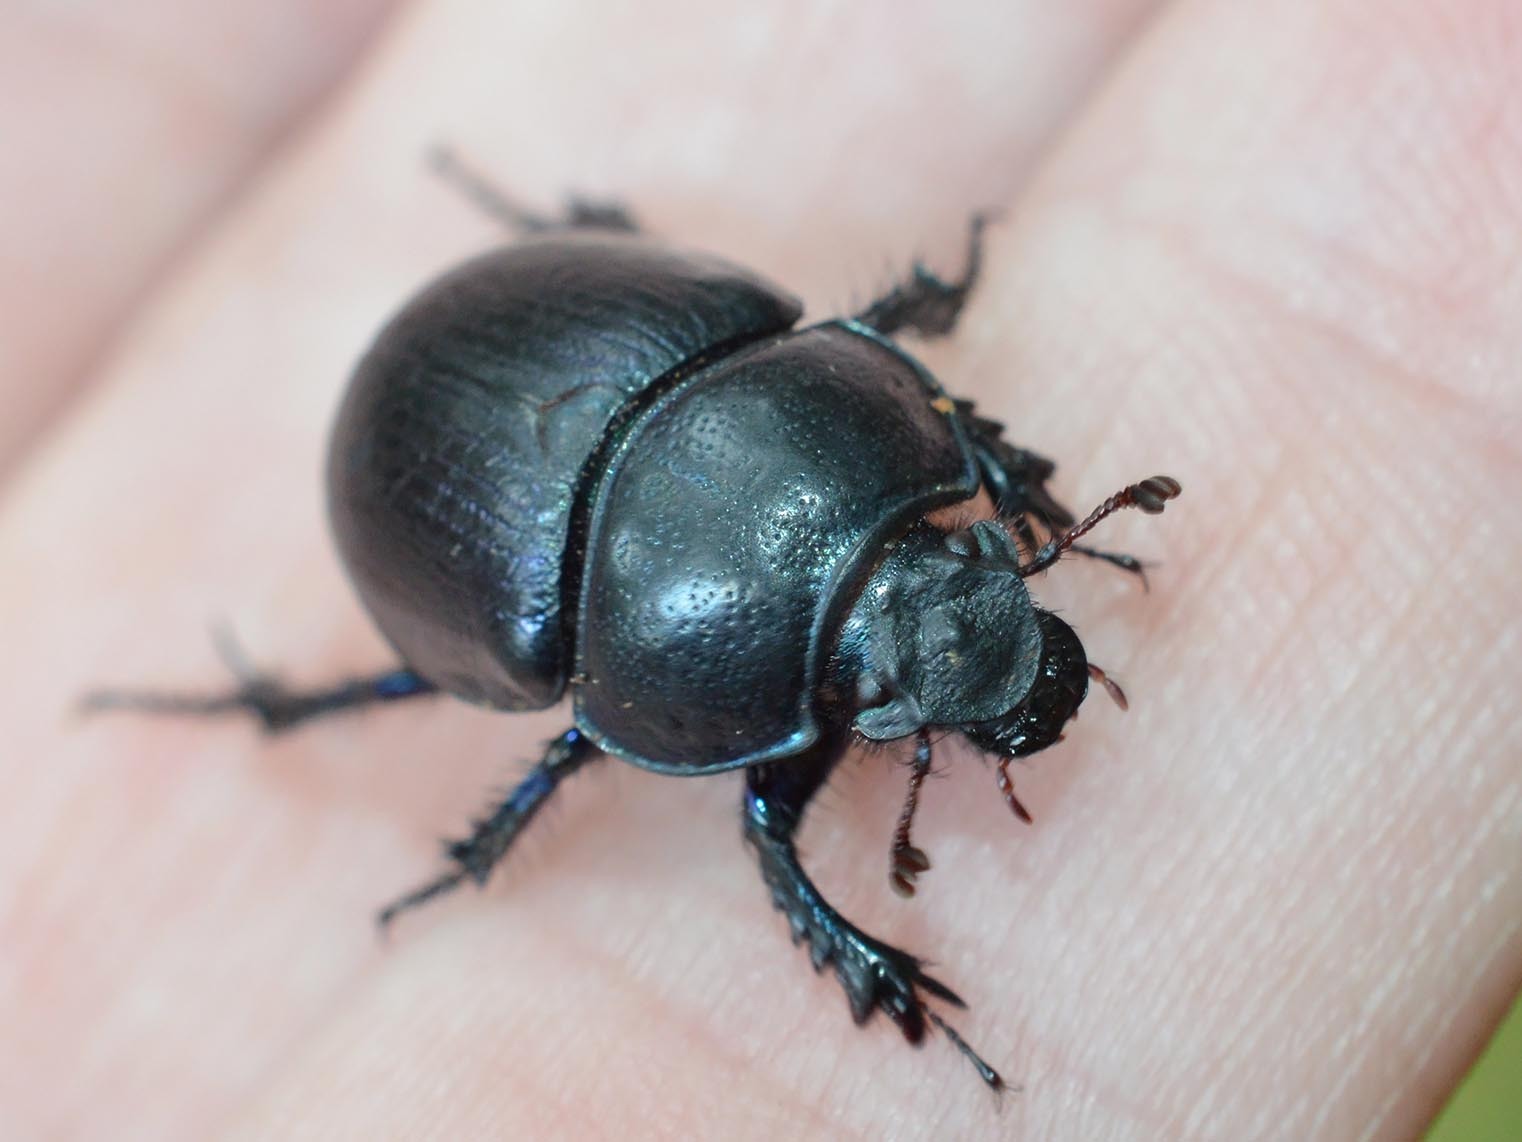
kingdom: Animalia
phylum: Arthropoda
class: Insecta
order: Coleoptera
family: Geotrupidae
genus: Anoplotrupes
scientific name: Anoplotrupes stercorosus
